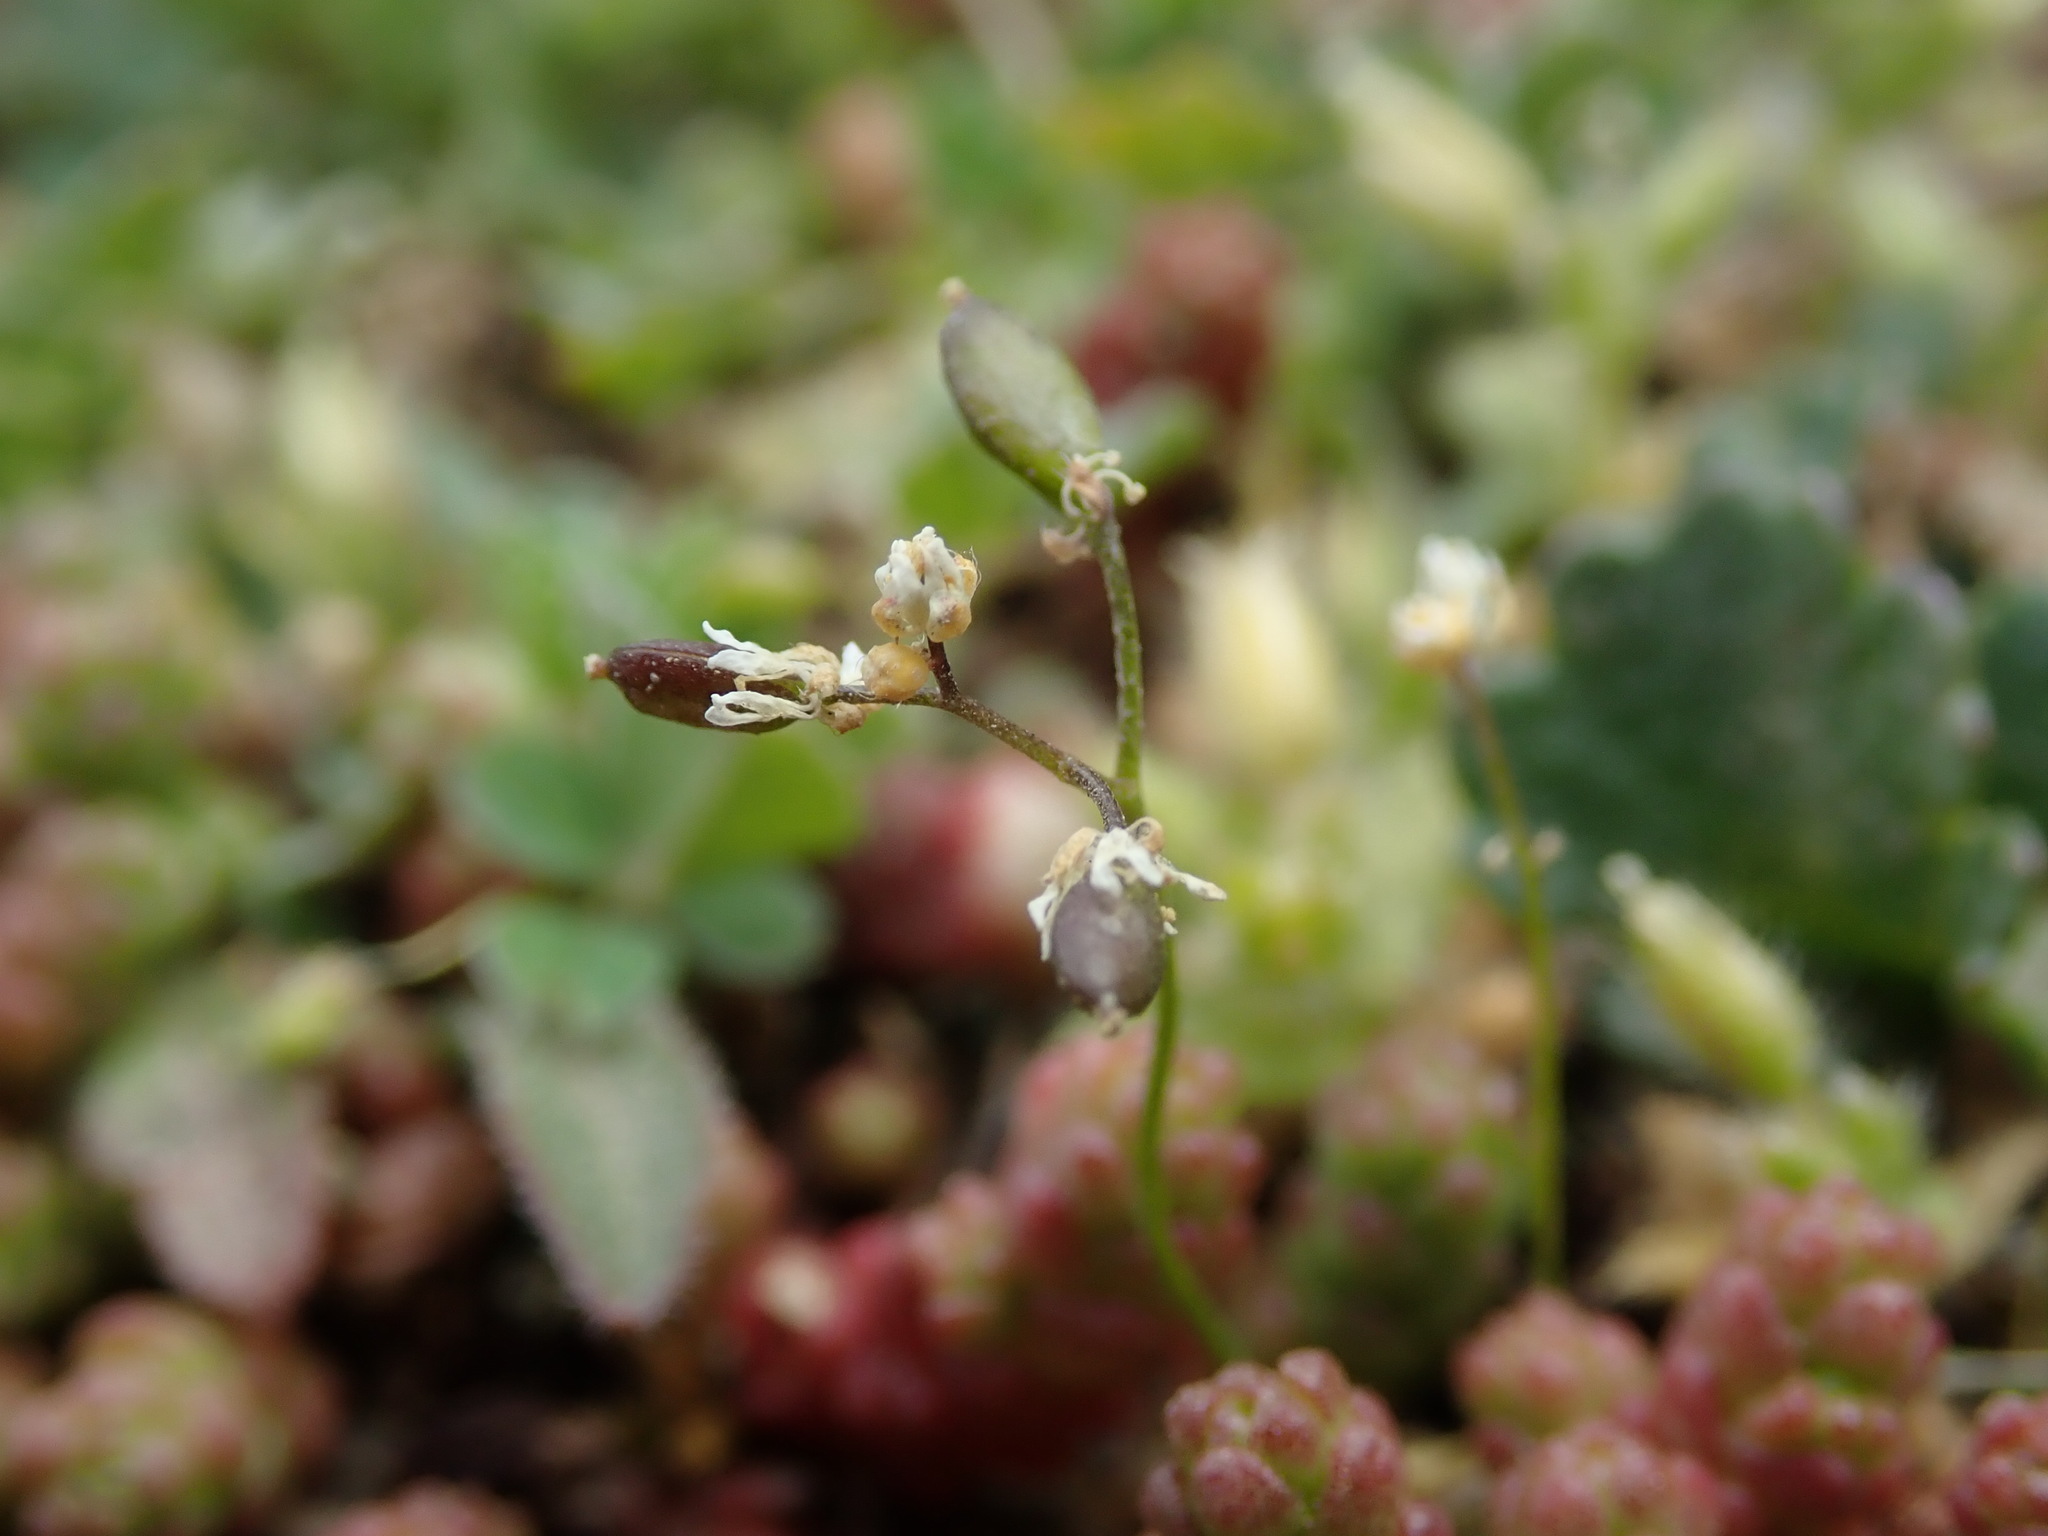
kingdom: Plantae
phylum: Tracheophyta
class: Magnoliopsida
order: Brassicales
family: Brassicaceae
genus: Draba
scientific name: Draba verna
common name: Spring draba
